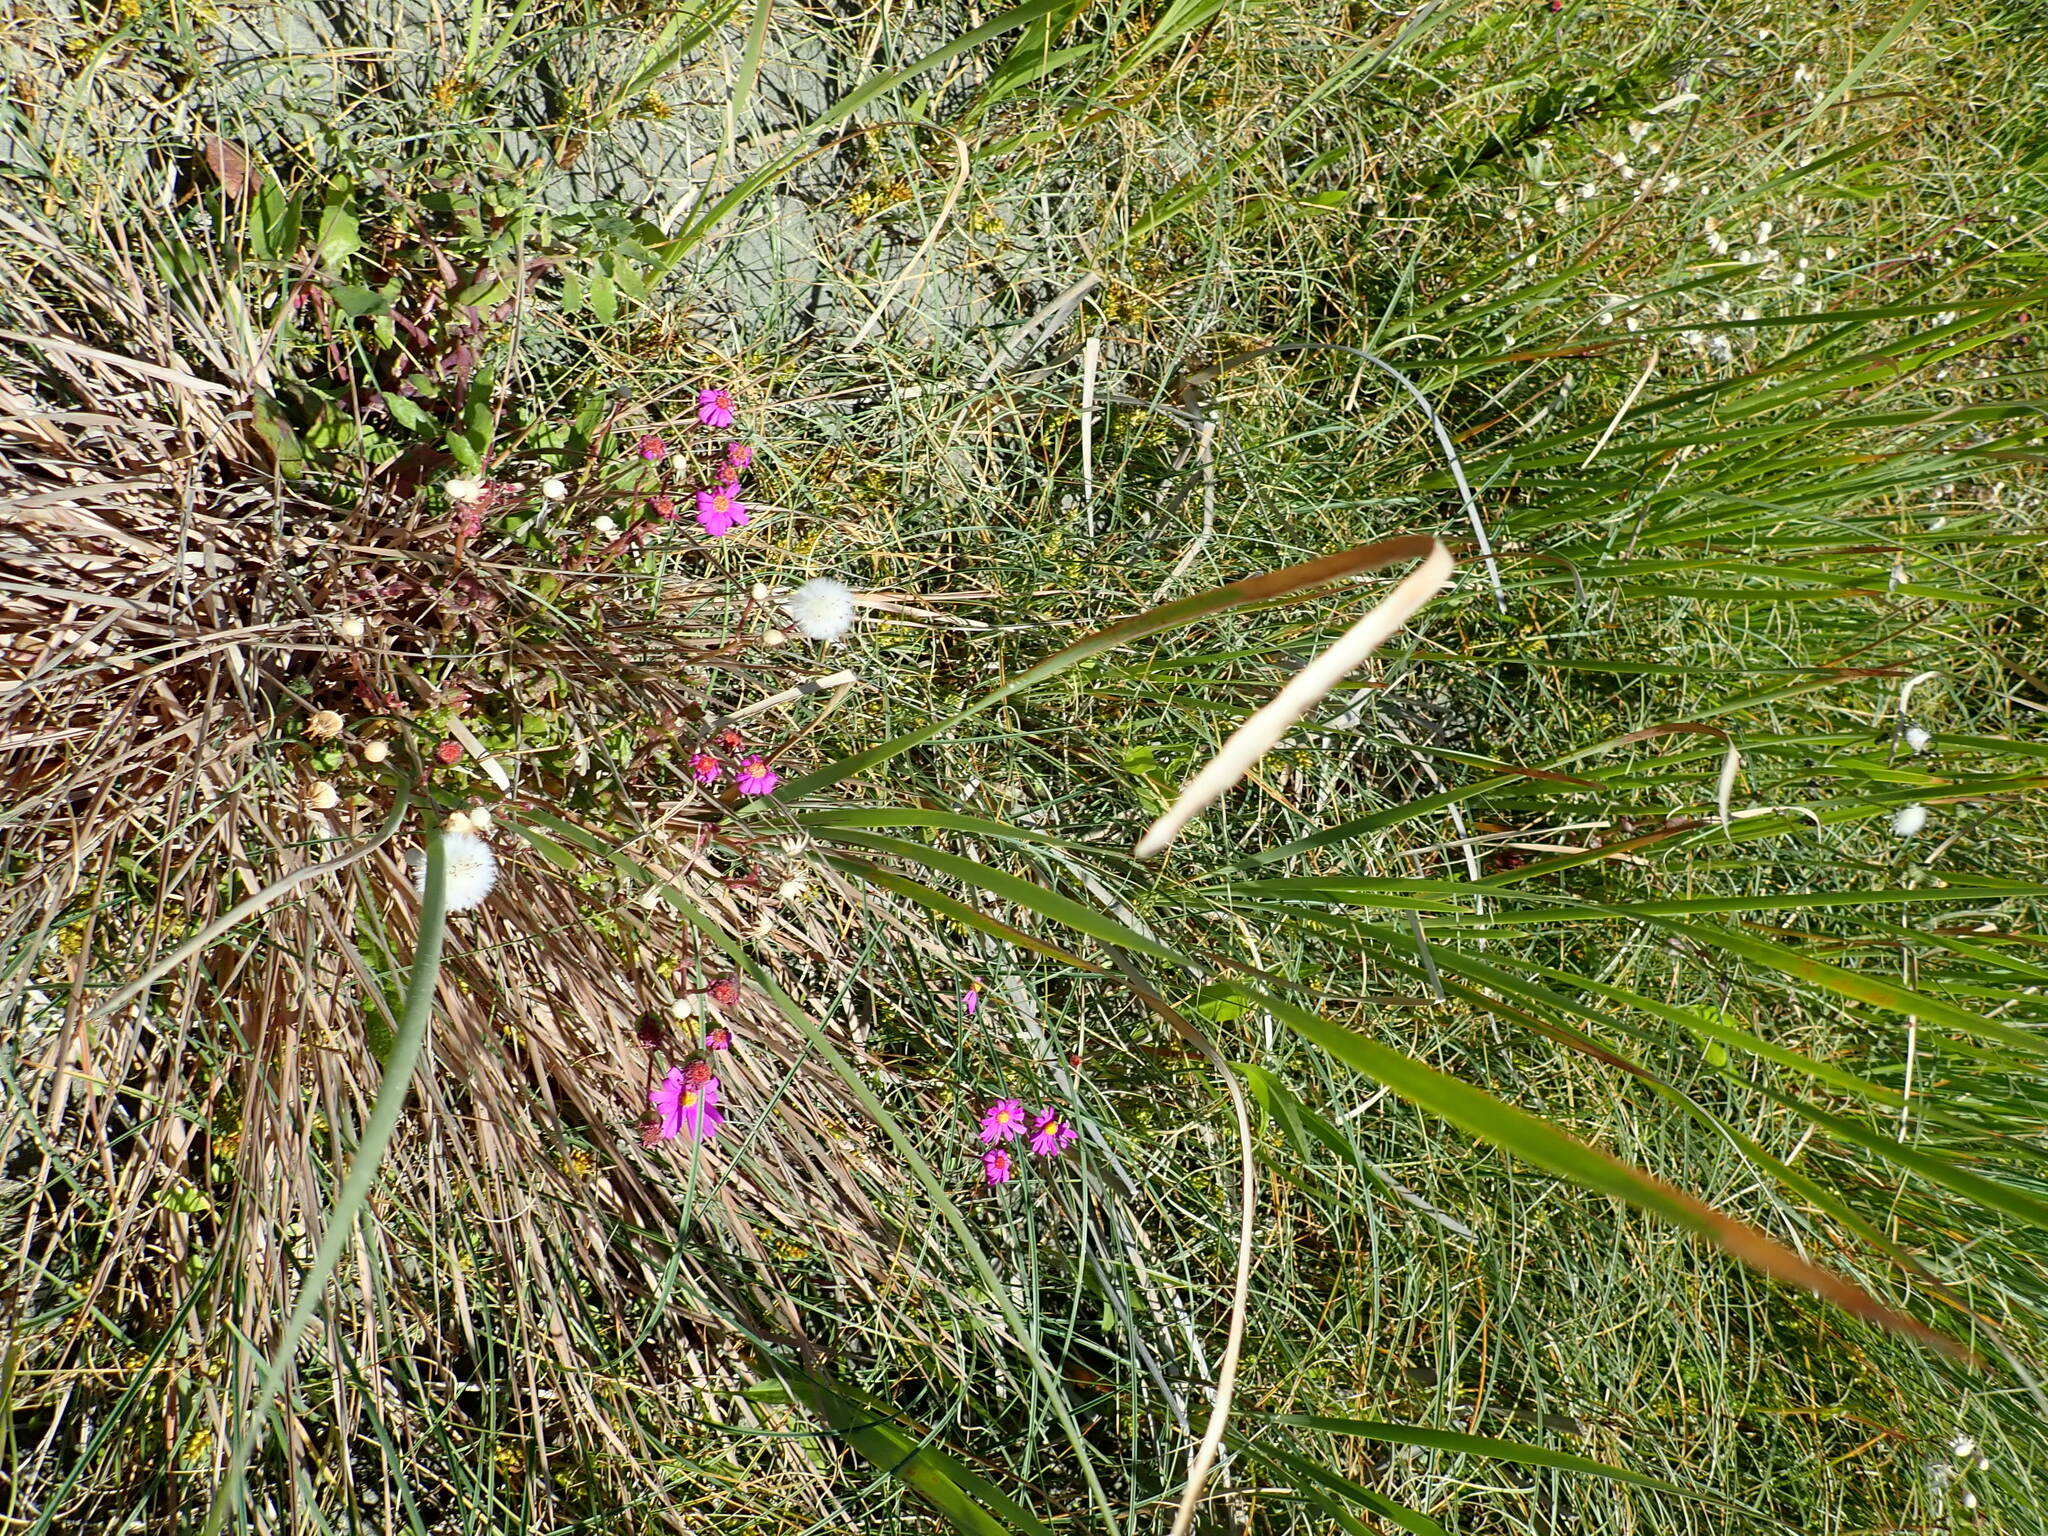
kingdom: Plantae
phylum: Tracheophyta
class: Liliopsida
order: Poales
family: Typhaceae
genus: Typha
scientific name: Typha orientalis
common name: Bullrush
